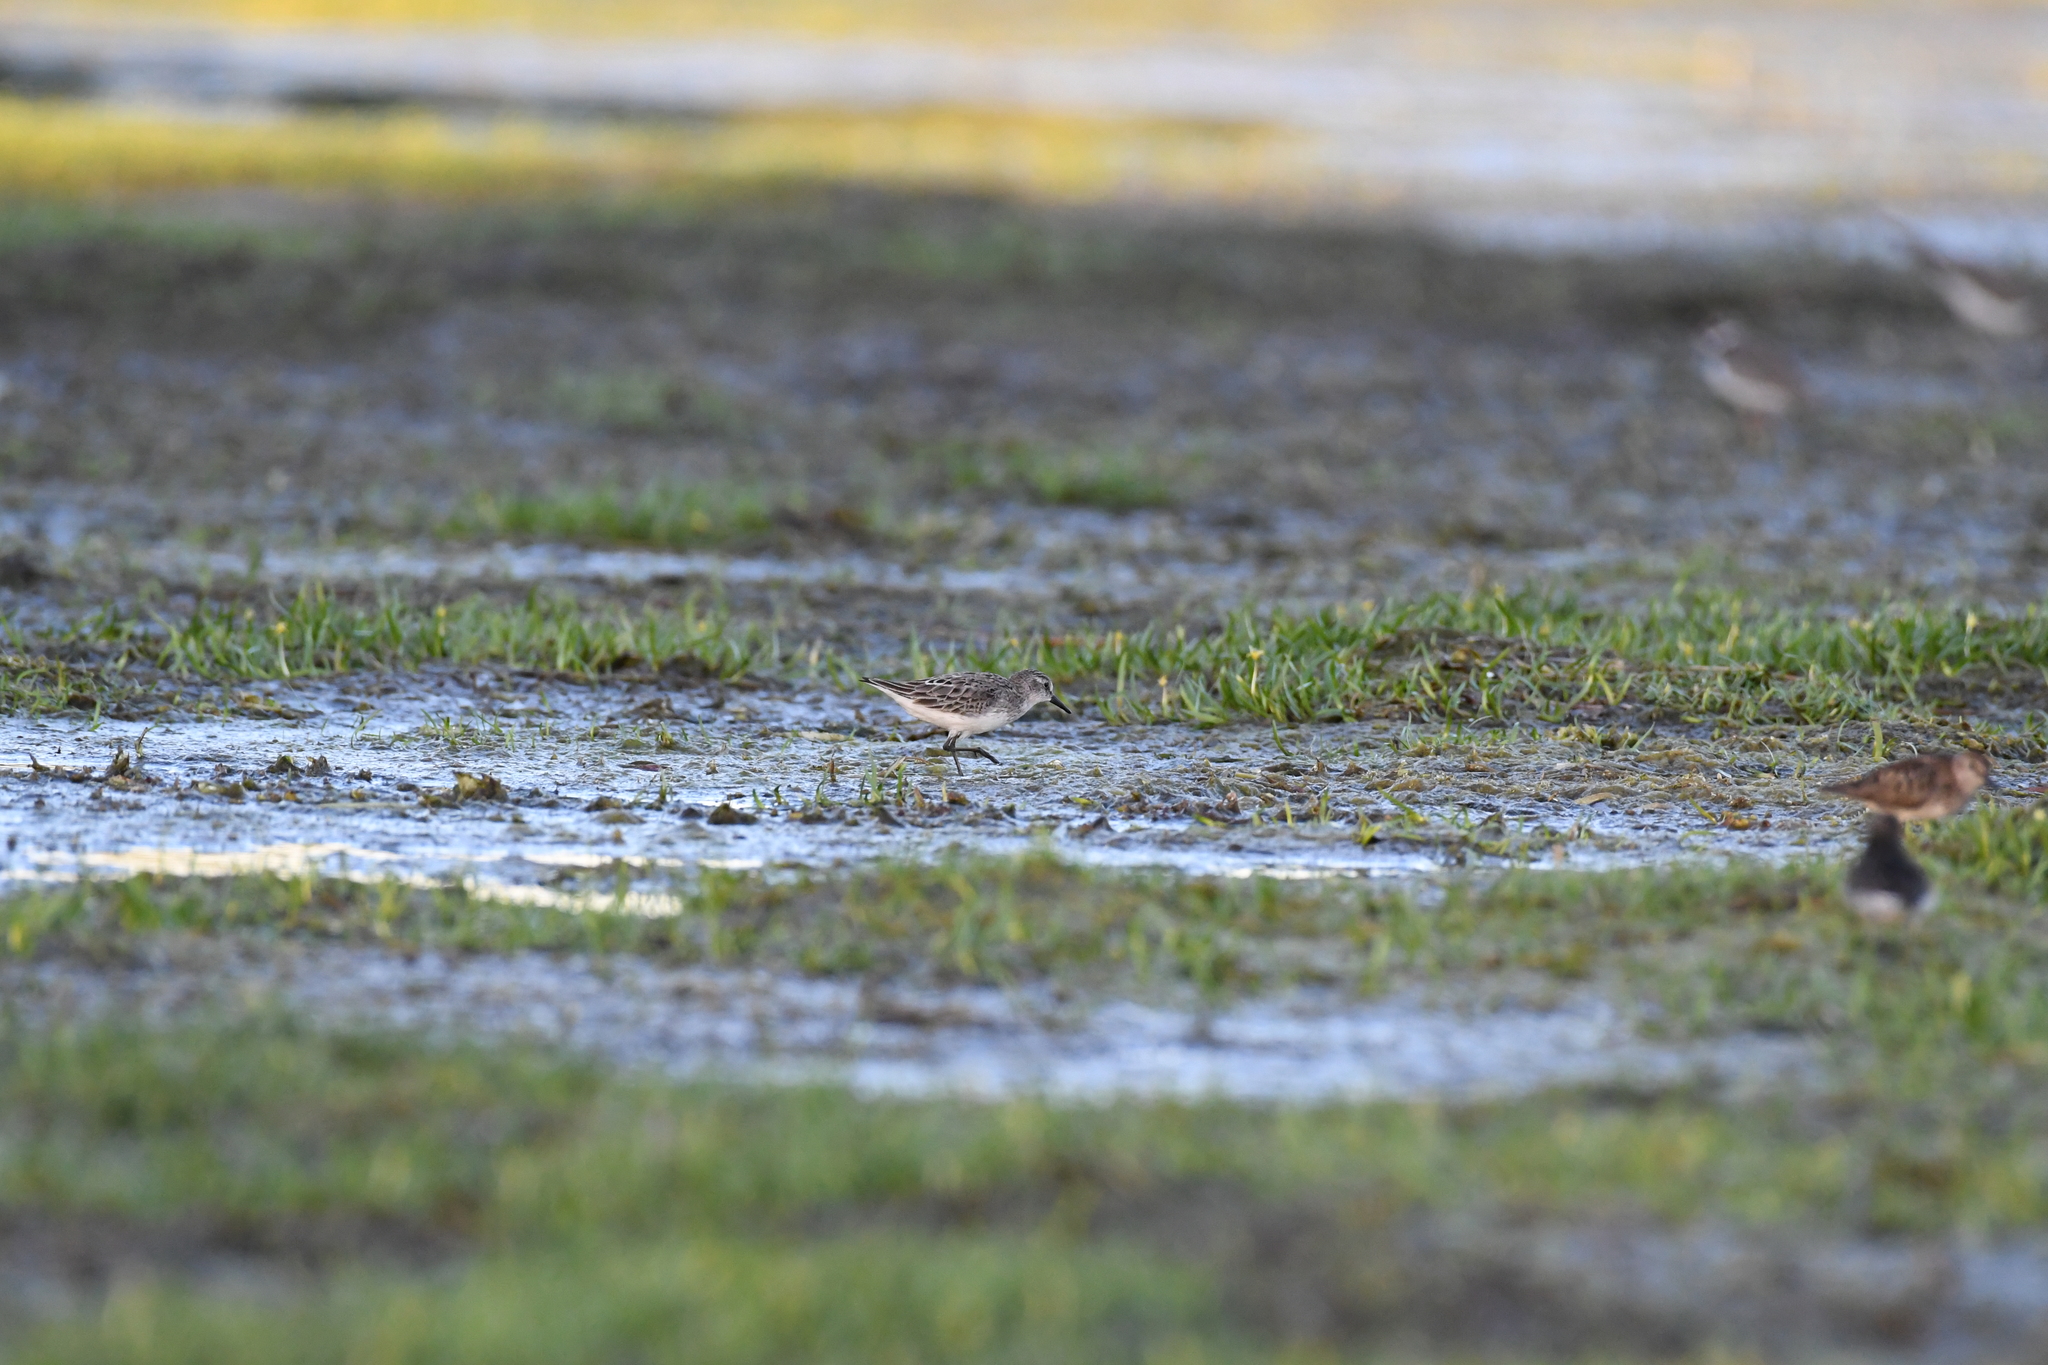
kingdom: Animalia
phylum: Chordata
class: Aves
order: Charadriiformes
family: Scolopacidae
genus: Calidris
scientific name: Calidris pusilla
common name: Semipalmated sandpiper
